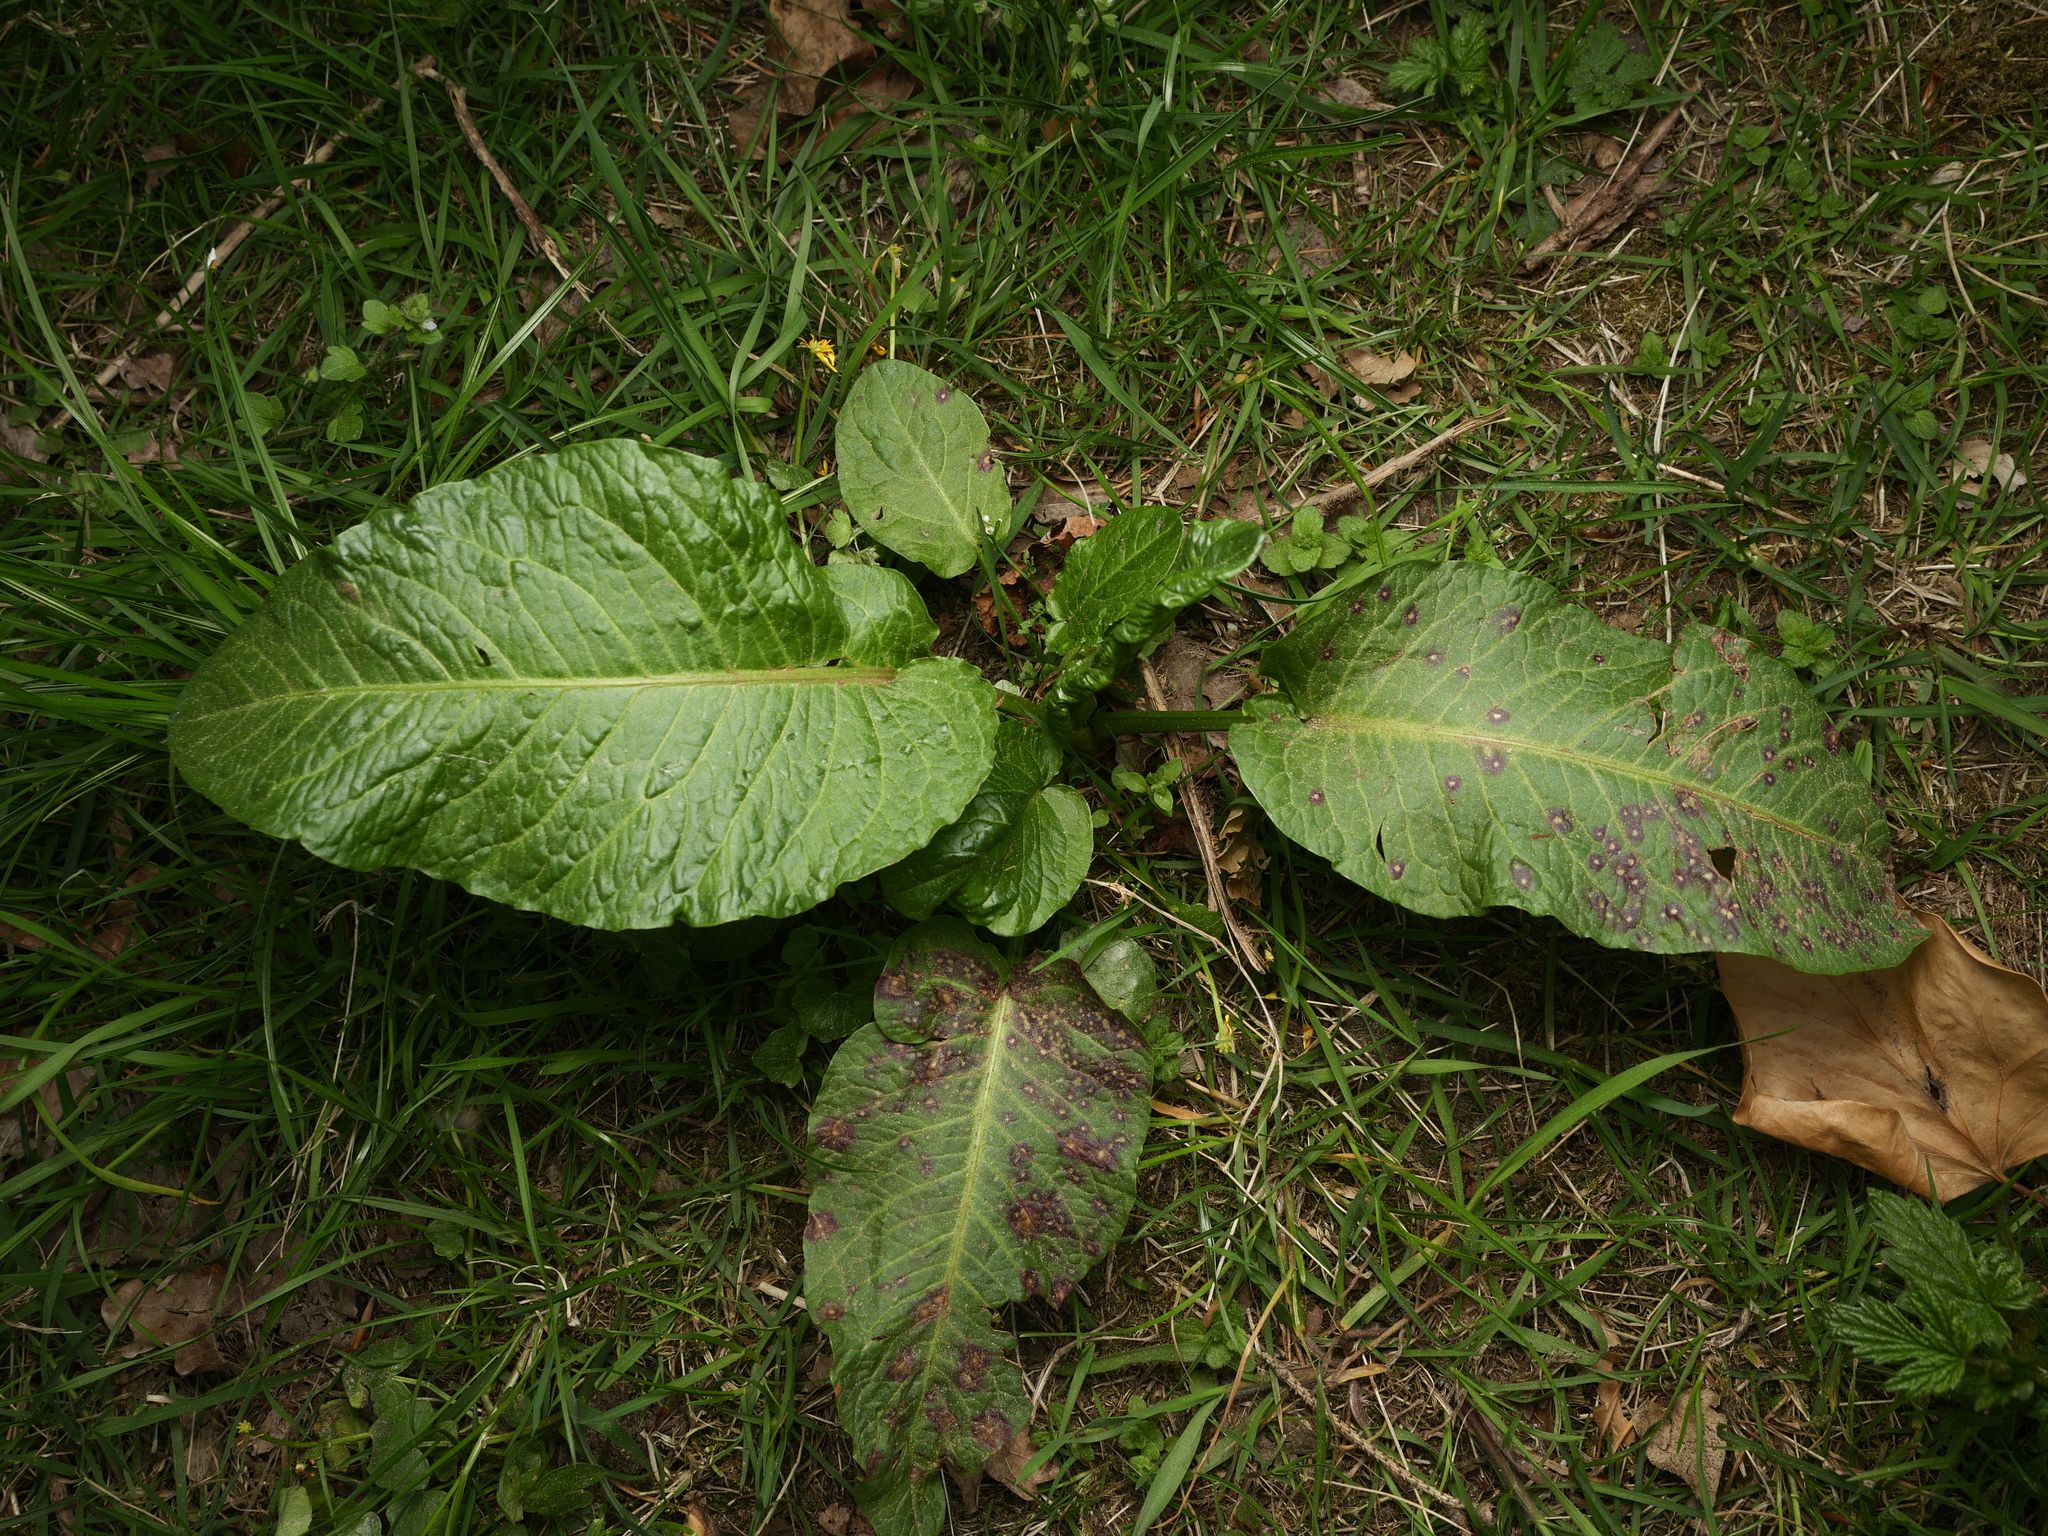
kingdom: Plantae
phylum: Tracheophyta
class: Magnoliopsida
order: Caryophyllales
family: Polygonaceae
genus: Rumex
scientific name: Rumex obtusifolius
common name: Bitter dock
